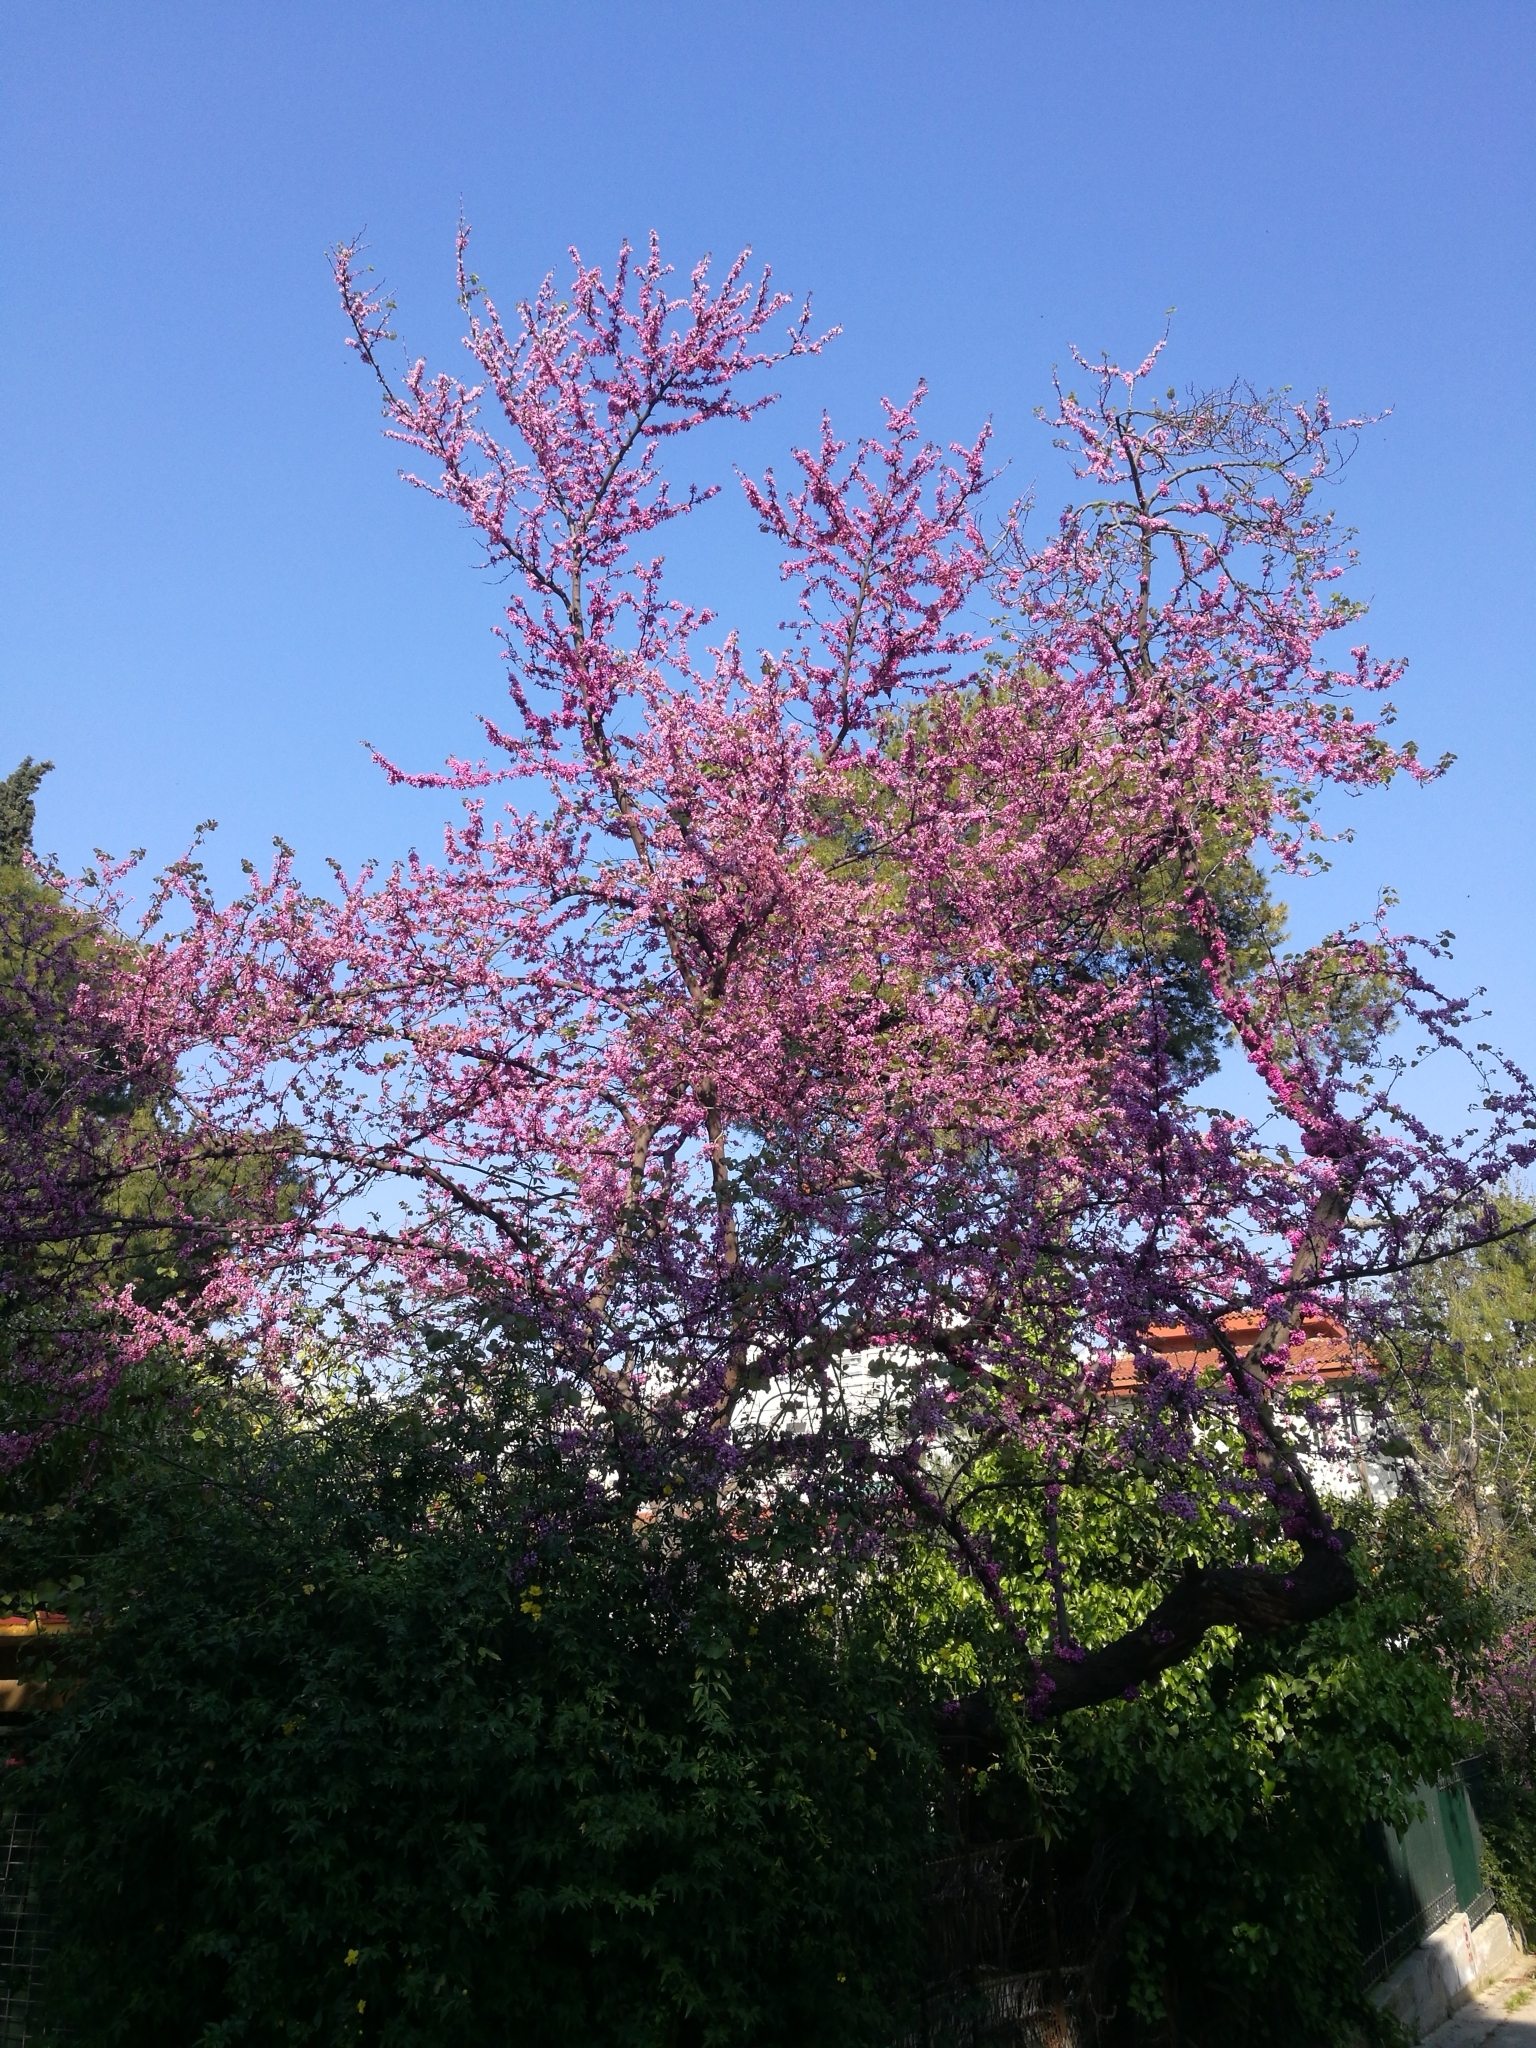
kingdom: Plantae
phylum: Tracheophyta
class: Magnoliopsida
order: Fabales
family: Fabaceae
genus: Cercis
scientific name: Cercis siliquastrum
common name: Judas tree
